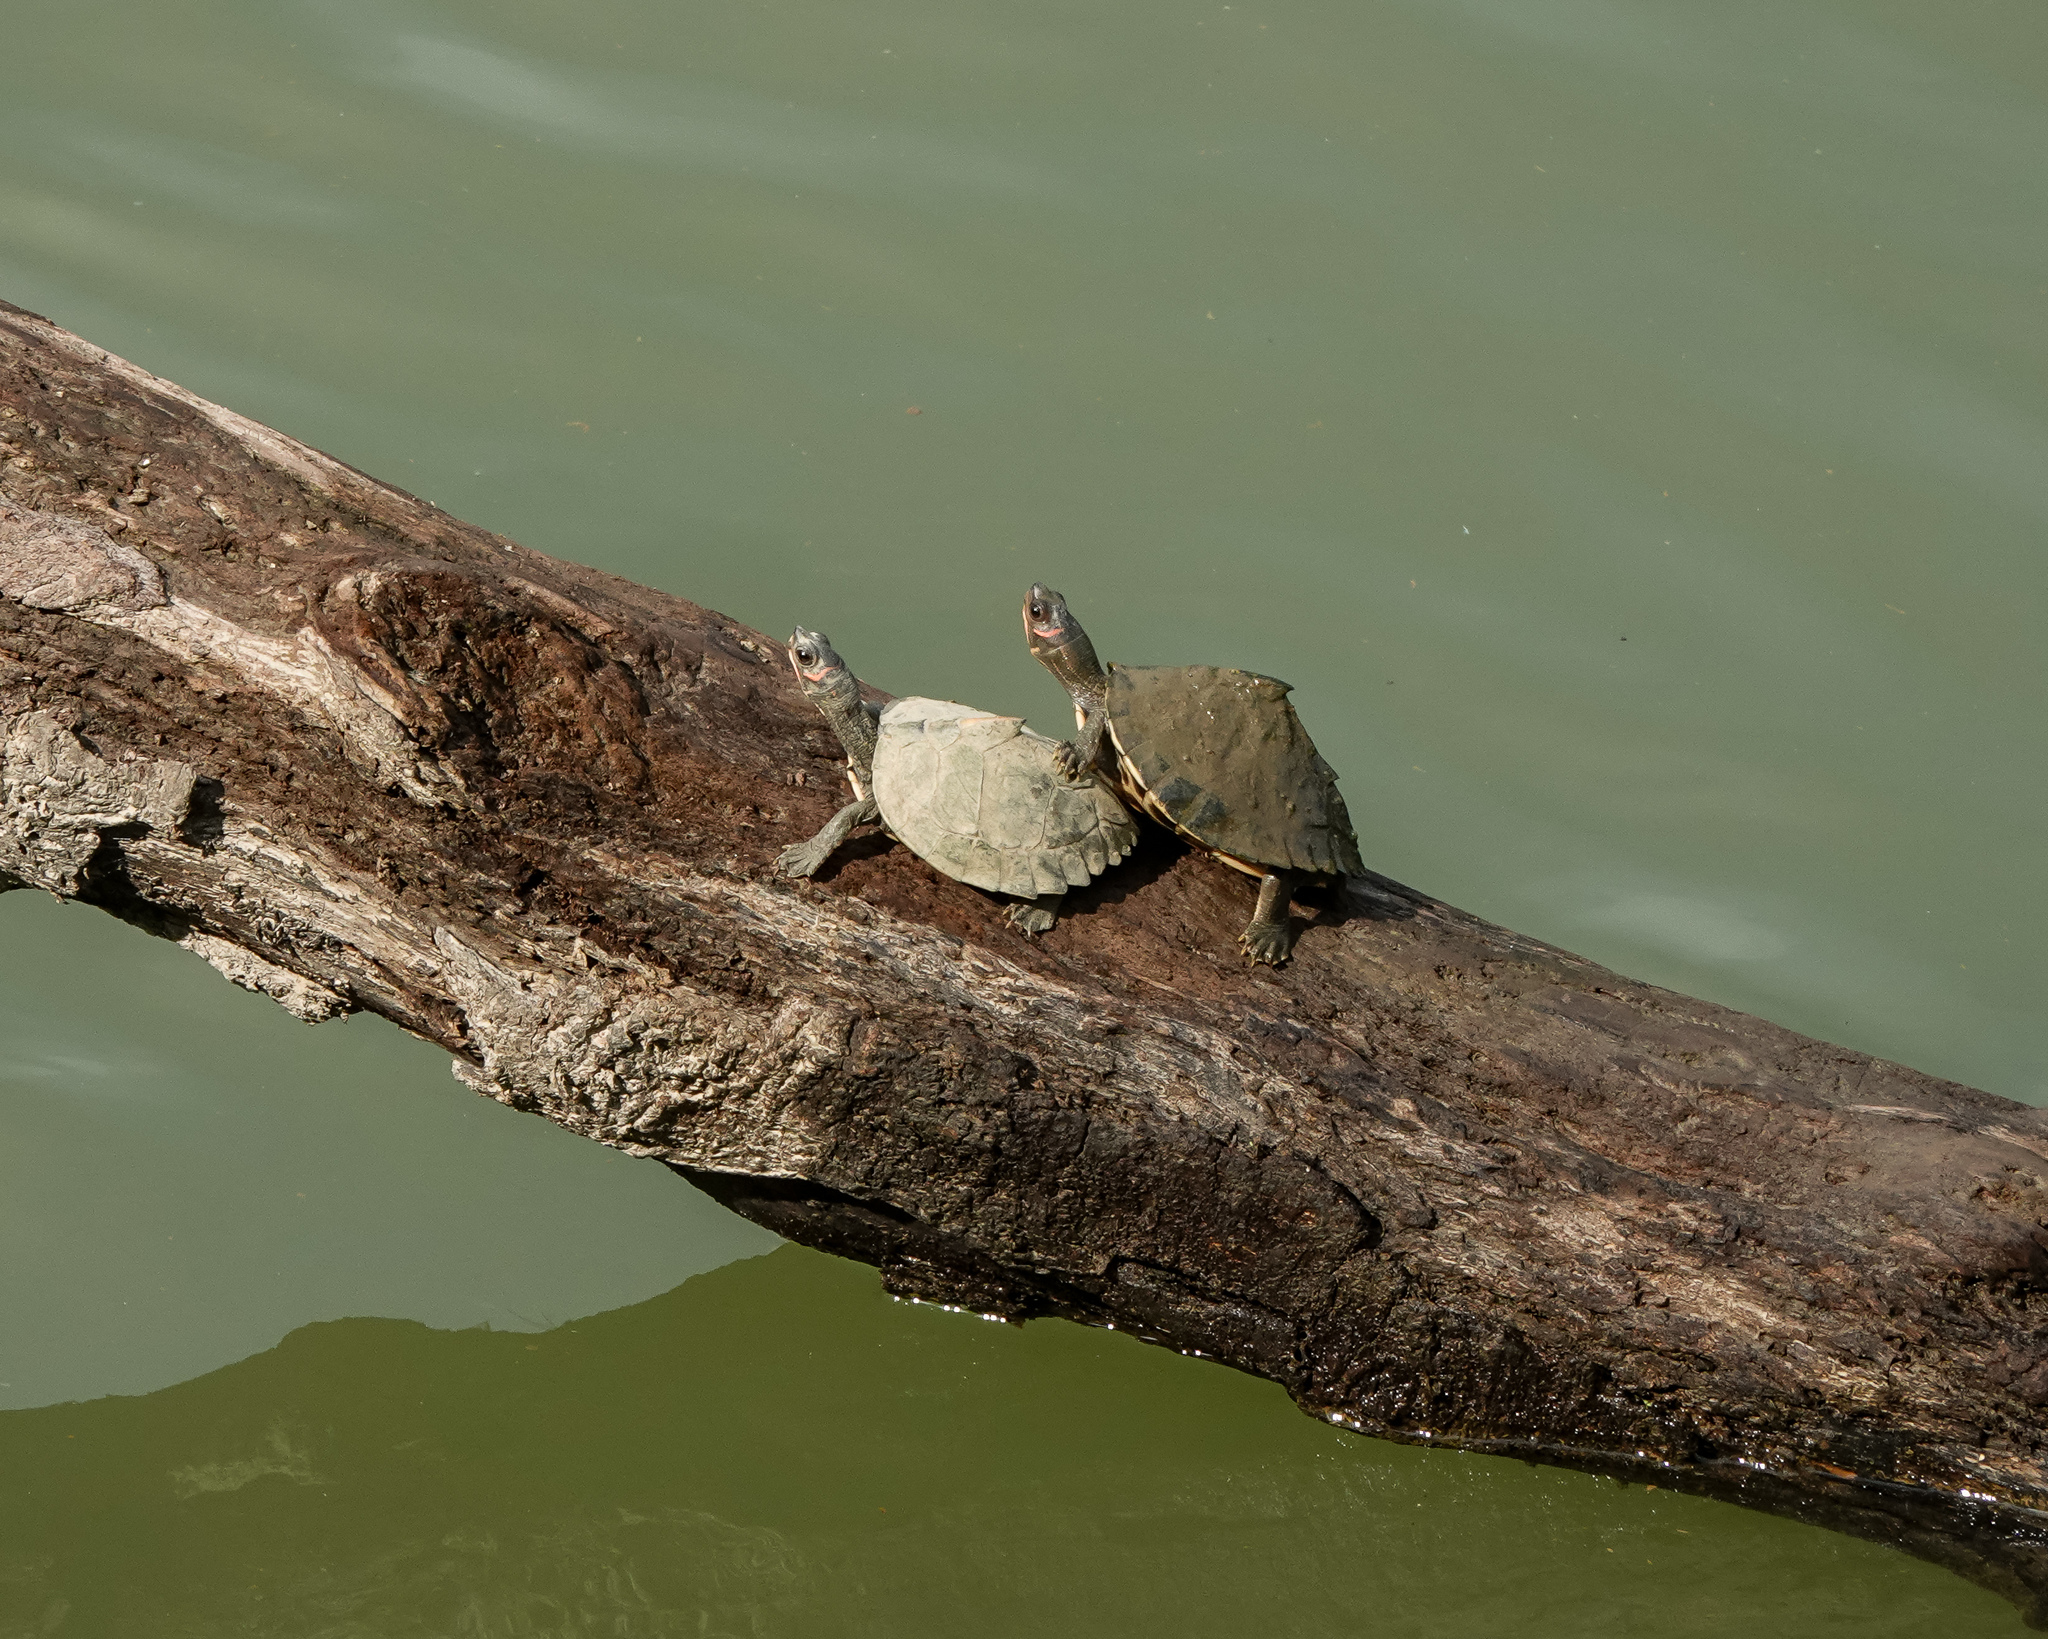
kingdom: Animalia
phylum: Chordata
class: Testudines
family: Geoemydidae
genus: Pangshura
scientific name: Pangshura sylhetensis
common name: Assam roofed turtle
